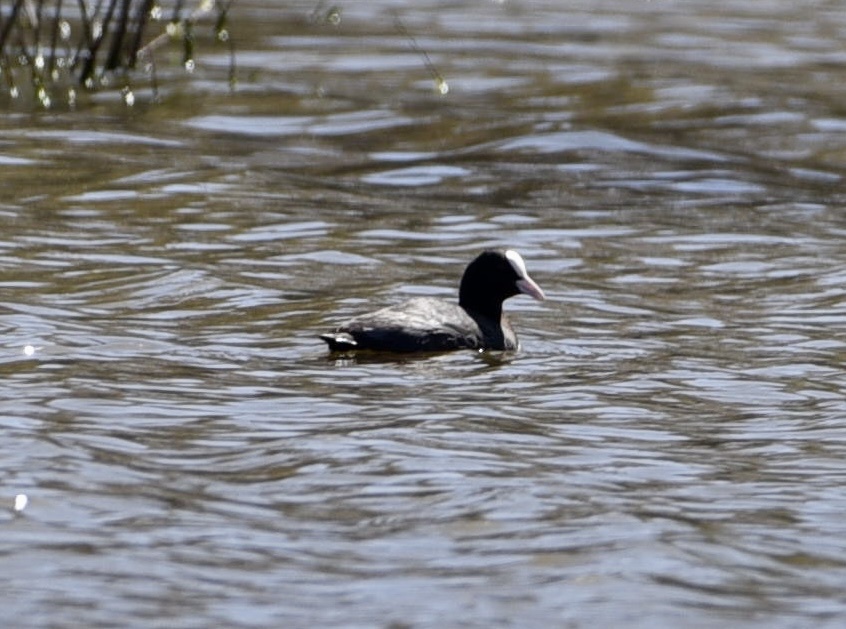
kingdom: Animalia
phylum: Chordata
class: Aves
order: Gruiformes
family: Rallidae
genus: Fulica
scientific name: Fulica atra
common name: Eurasian coot
